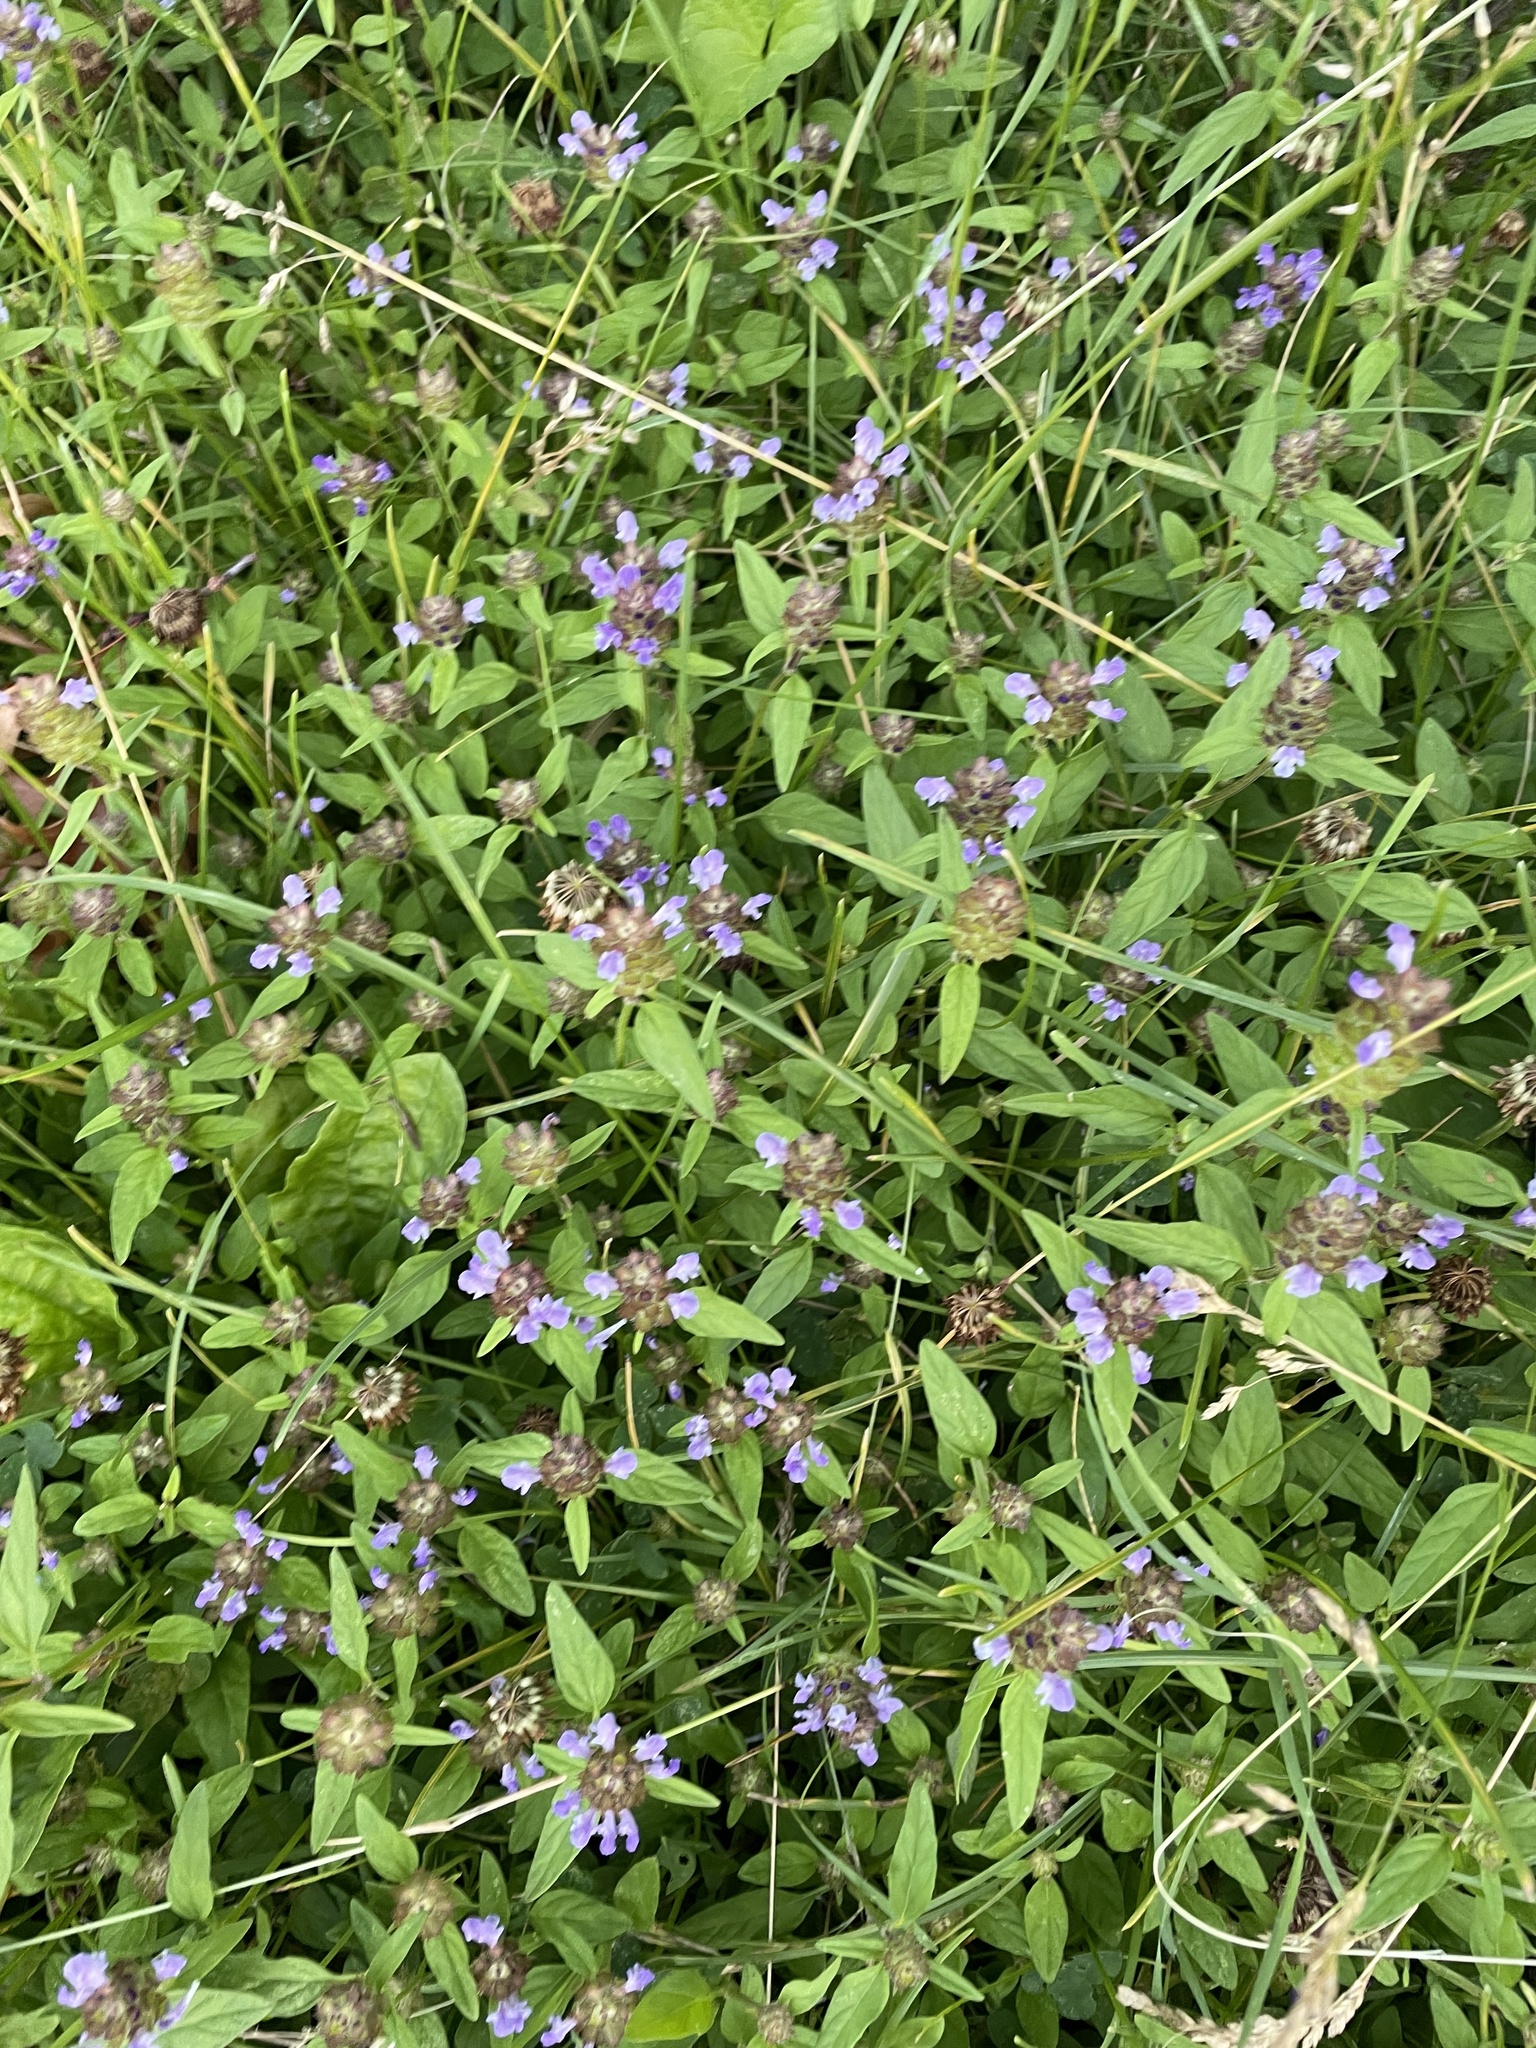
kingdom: Plantae
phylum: Tracheophyta
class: Magnoliopsida
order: Lamiales
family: Lamiaceae
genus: Prunella
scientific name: Prunella vulgaris
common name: Heal-all
